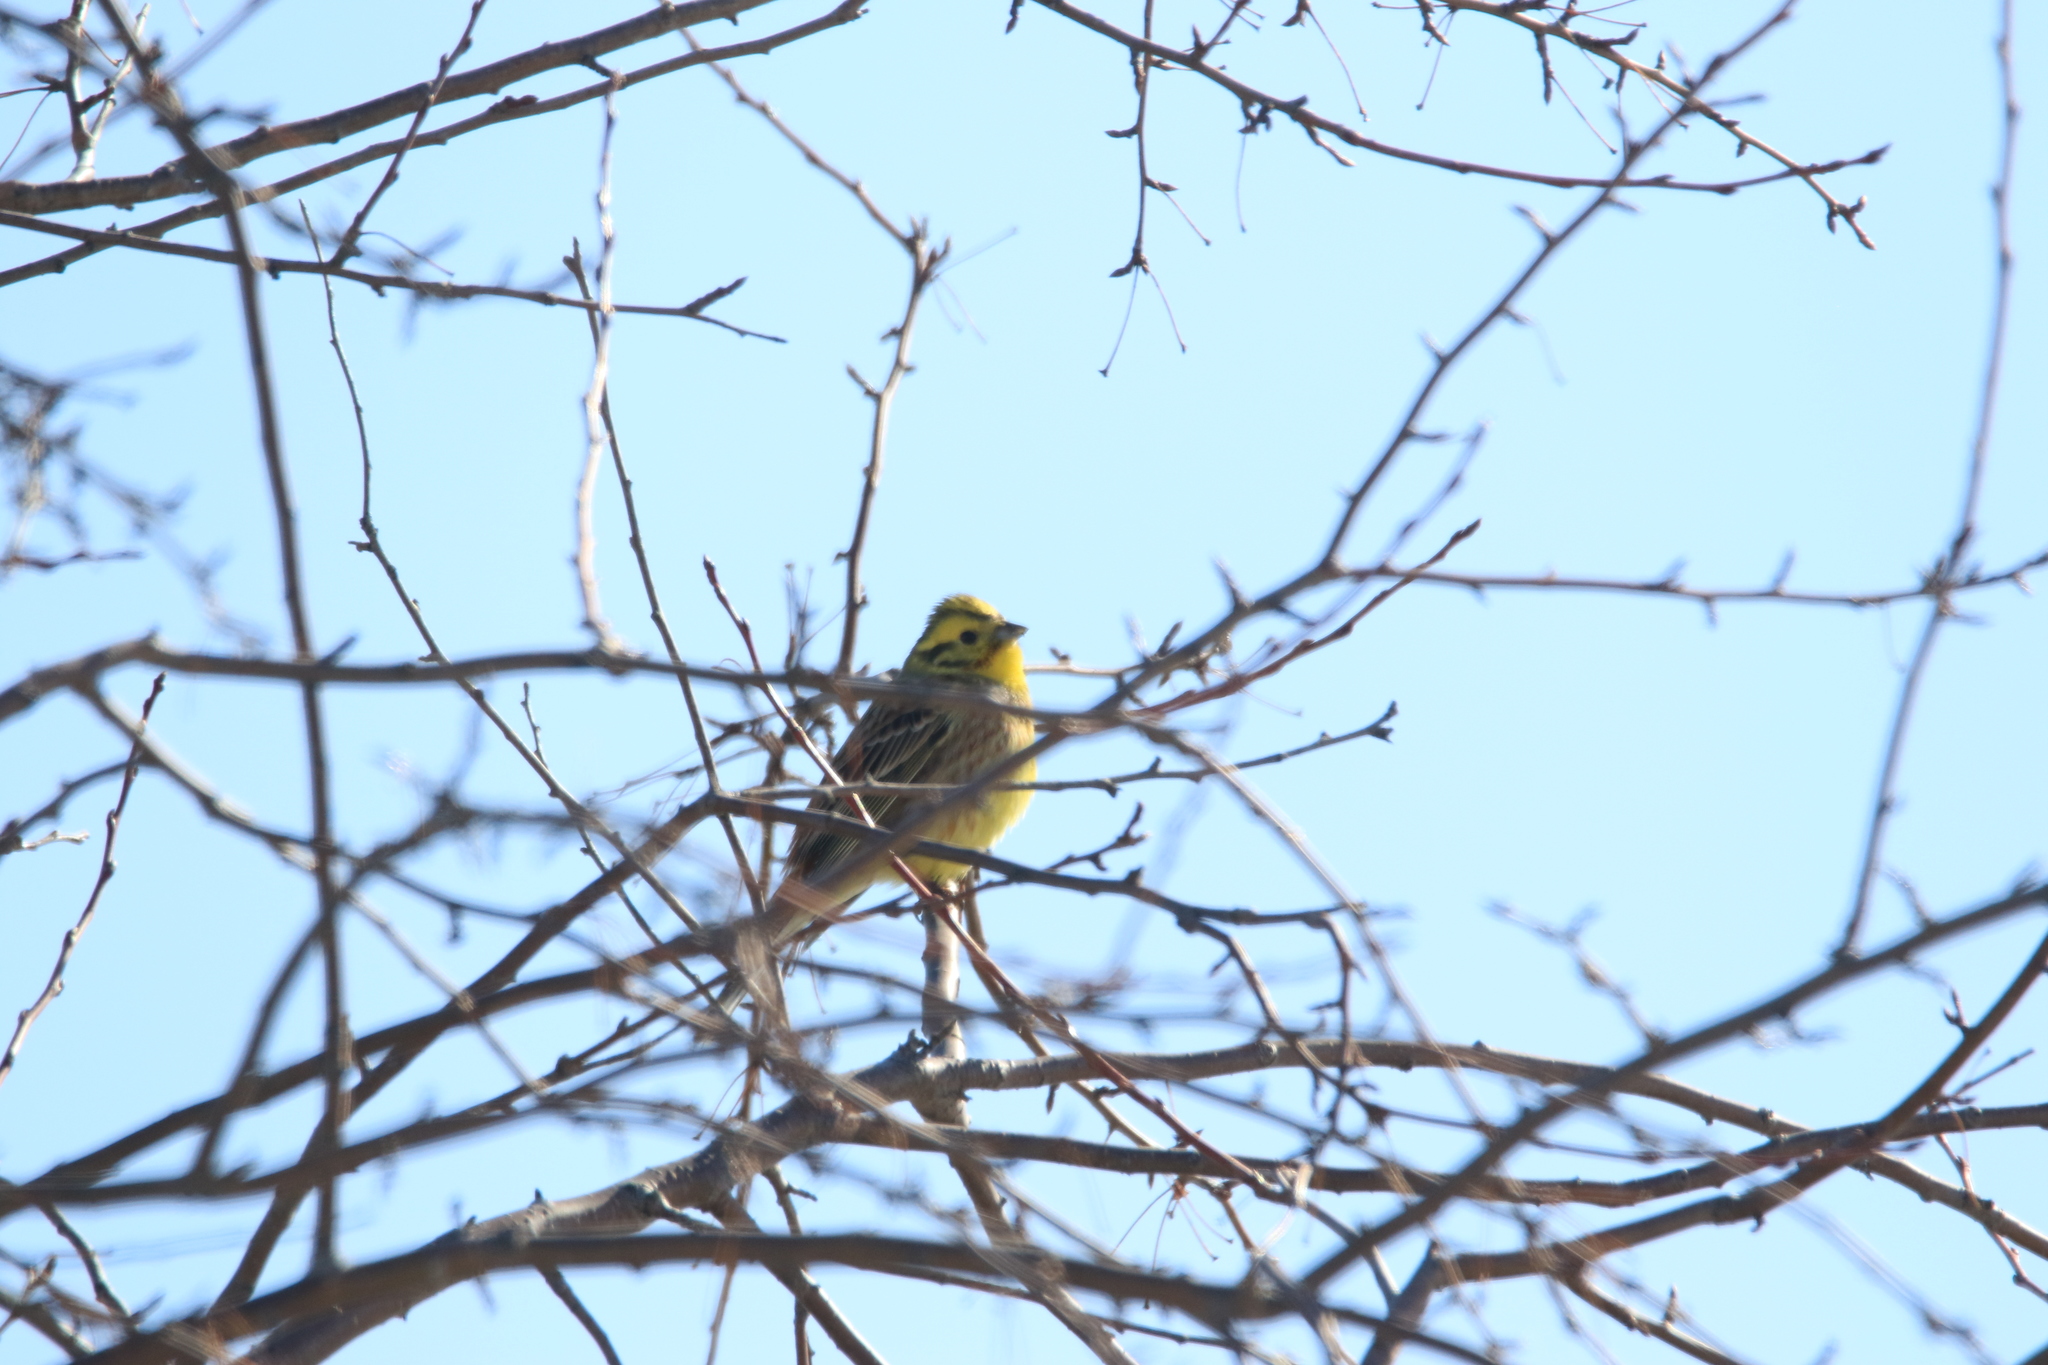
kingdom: Animalia
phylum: Chordata
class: Aves
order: Passeriformes
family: Emberizidae
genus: Emberiza
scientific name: Emberiza citrinella
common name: Yellowhammer
